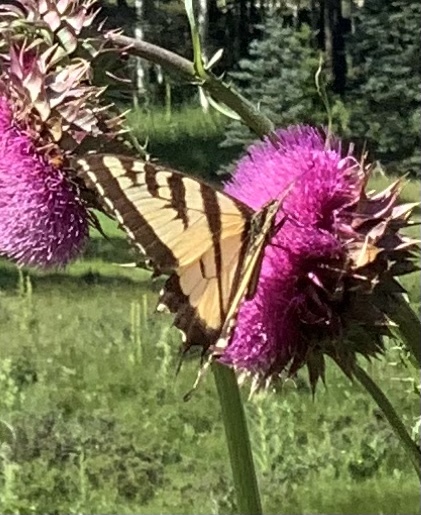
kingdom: Animalia
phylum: Arthropoda
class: Insecta
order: Lepidoptera
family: Papilionidae
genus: Papilio
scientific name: Papilio rutulus
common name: Western tiger swallowtail
